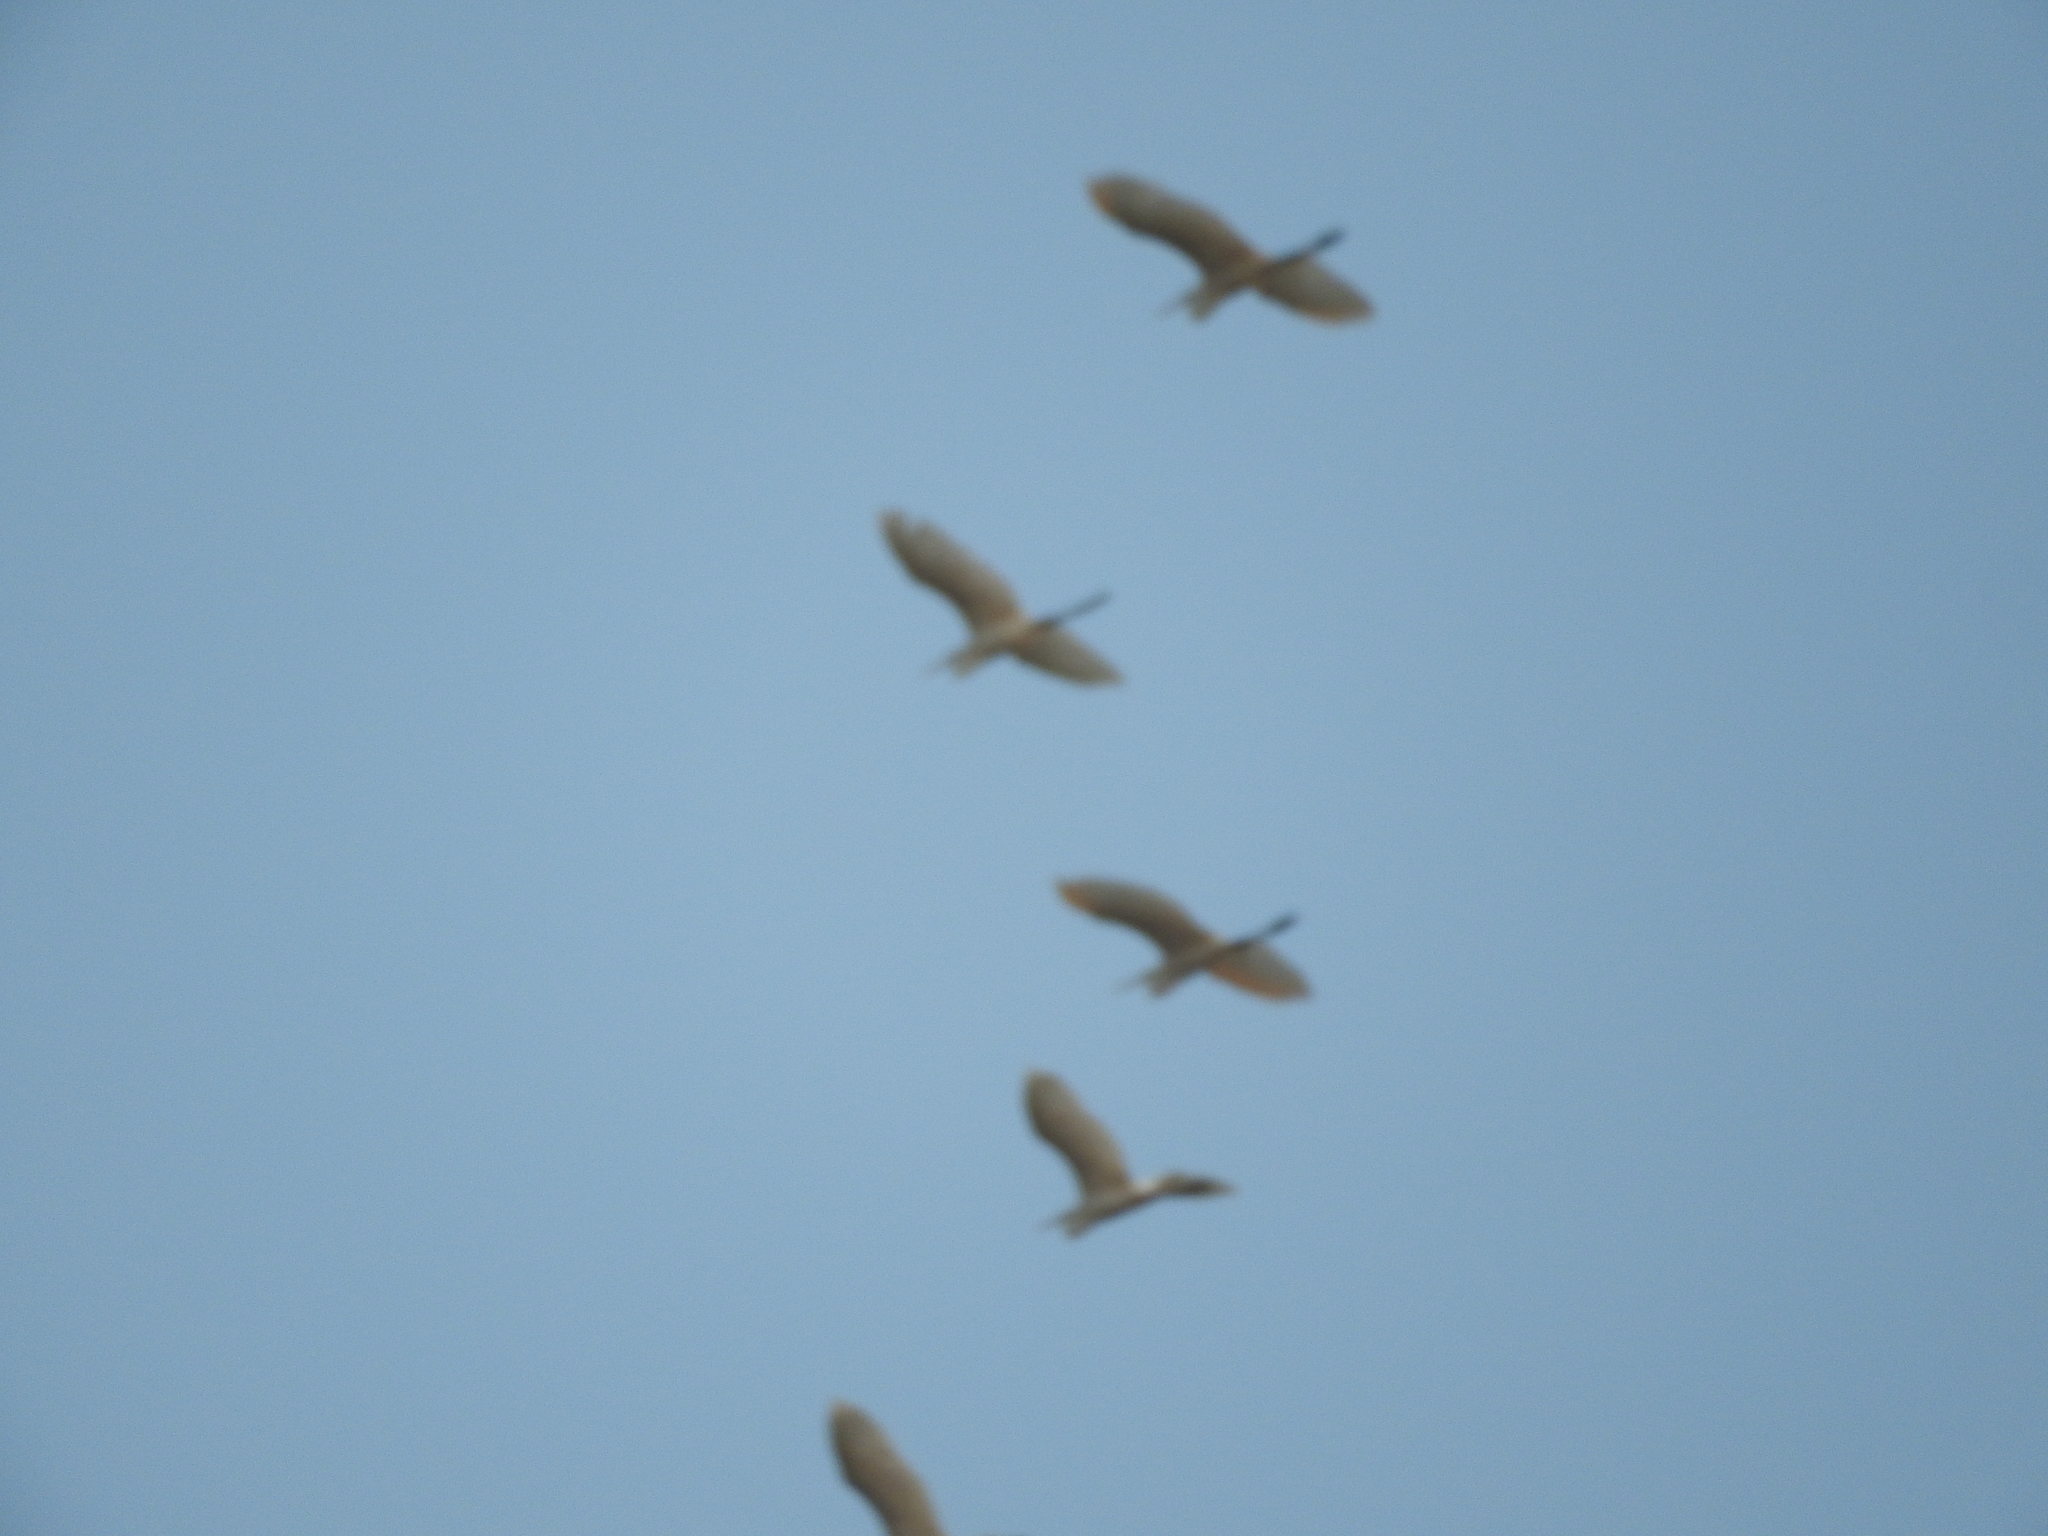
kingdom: Animalia
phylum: Chordata
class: Aves
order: Pelecaniformes
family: Ardeidae
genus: Ardea
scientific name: Ardea alba
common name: Great egret
